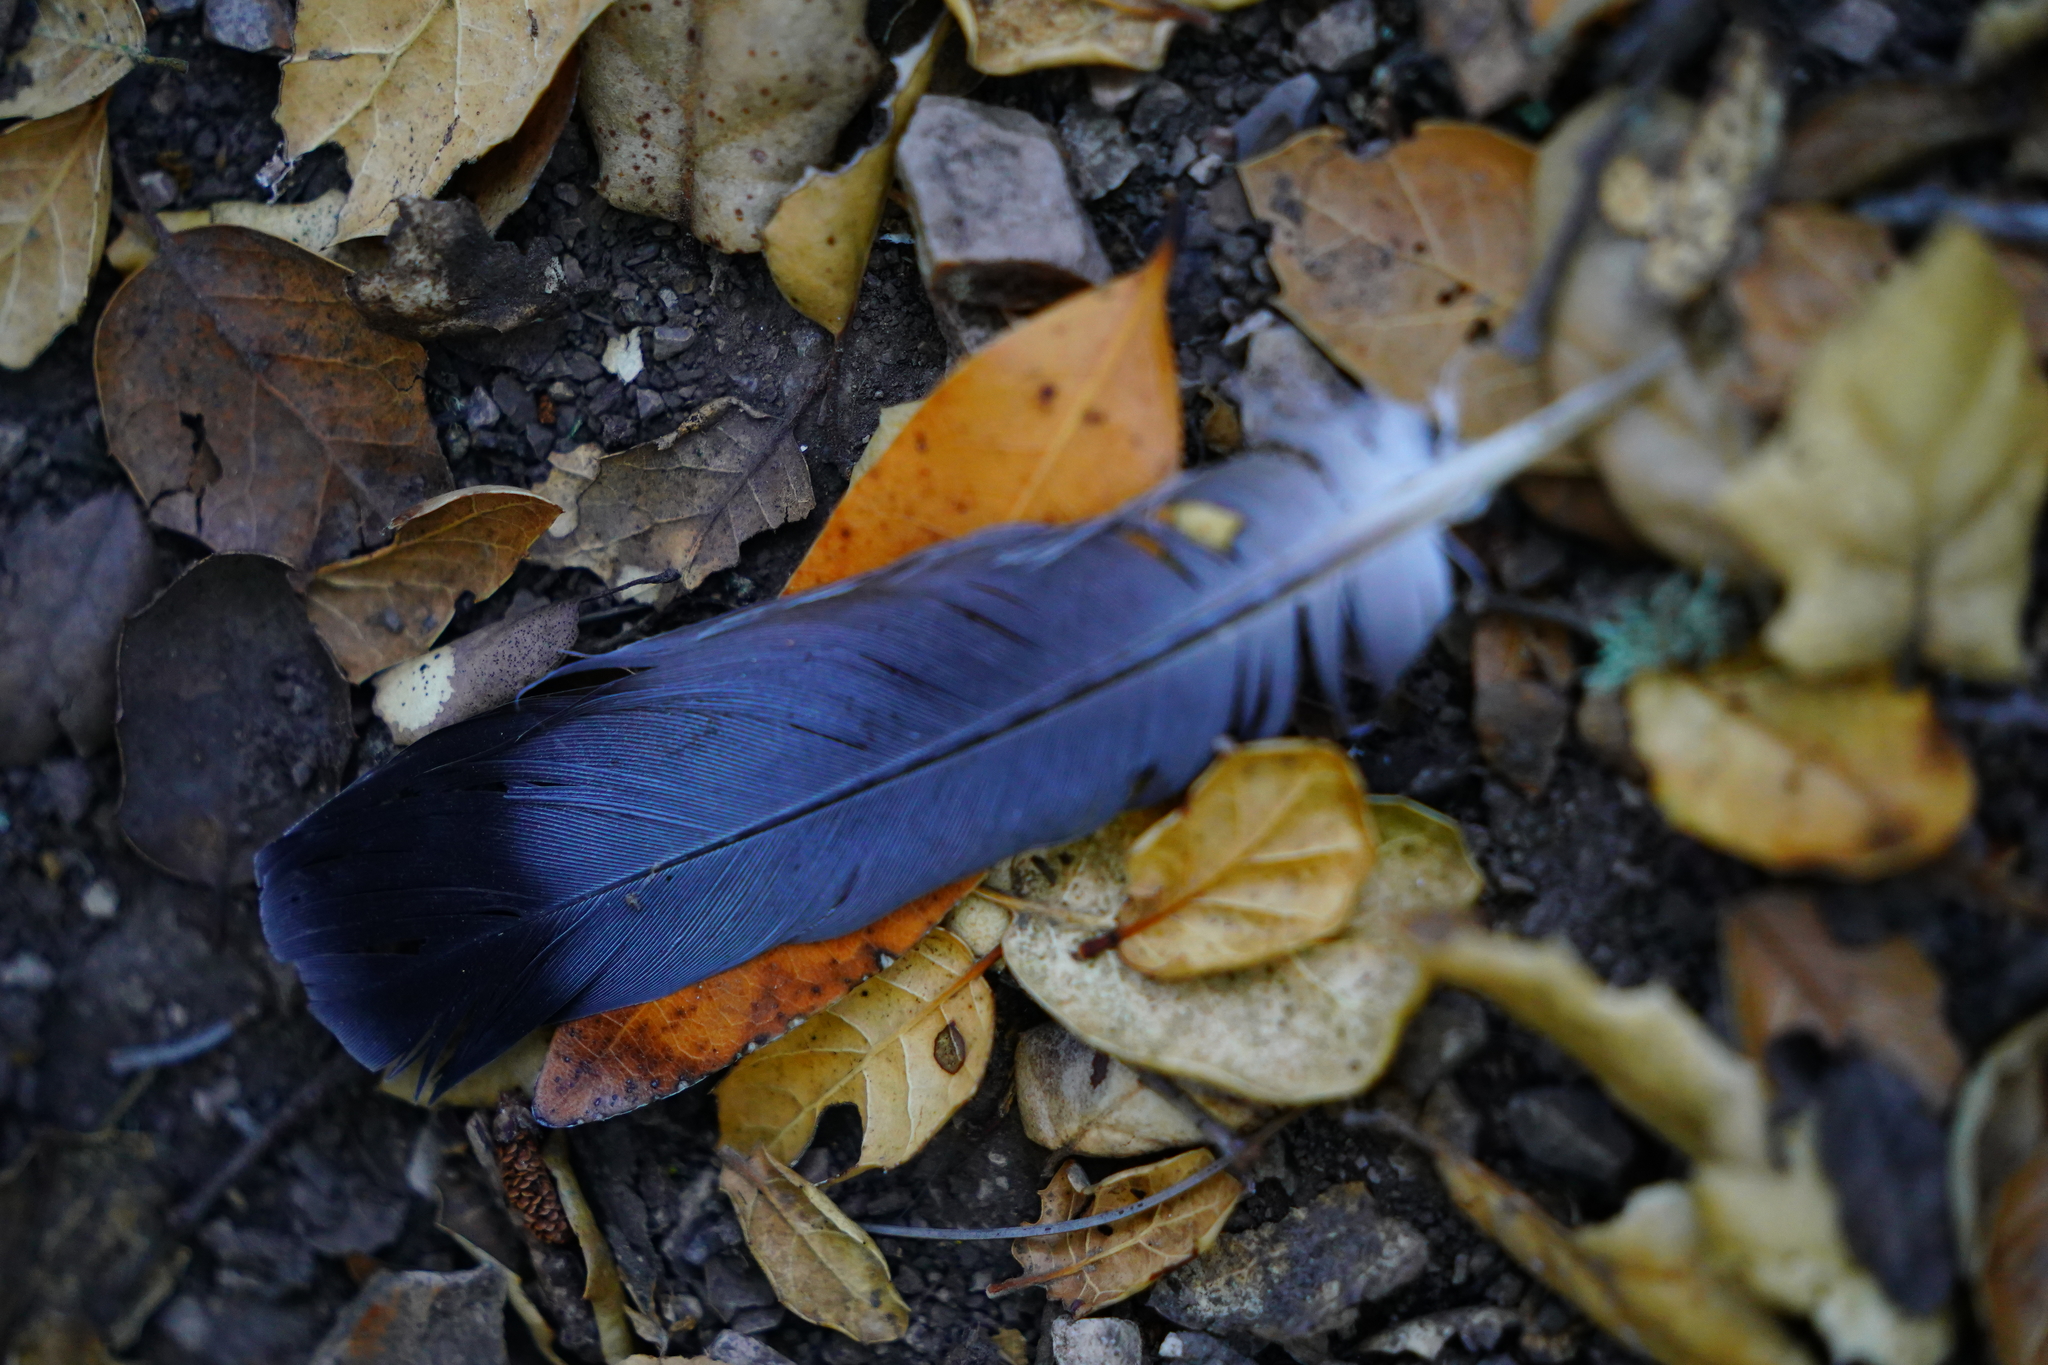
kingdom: Animalia
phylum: Chordata
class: Aves
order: Columbiformes
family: Columbidae
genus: Columba
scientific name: Columba livia
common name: Rock pigeon
